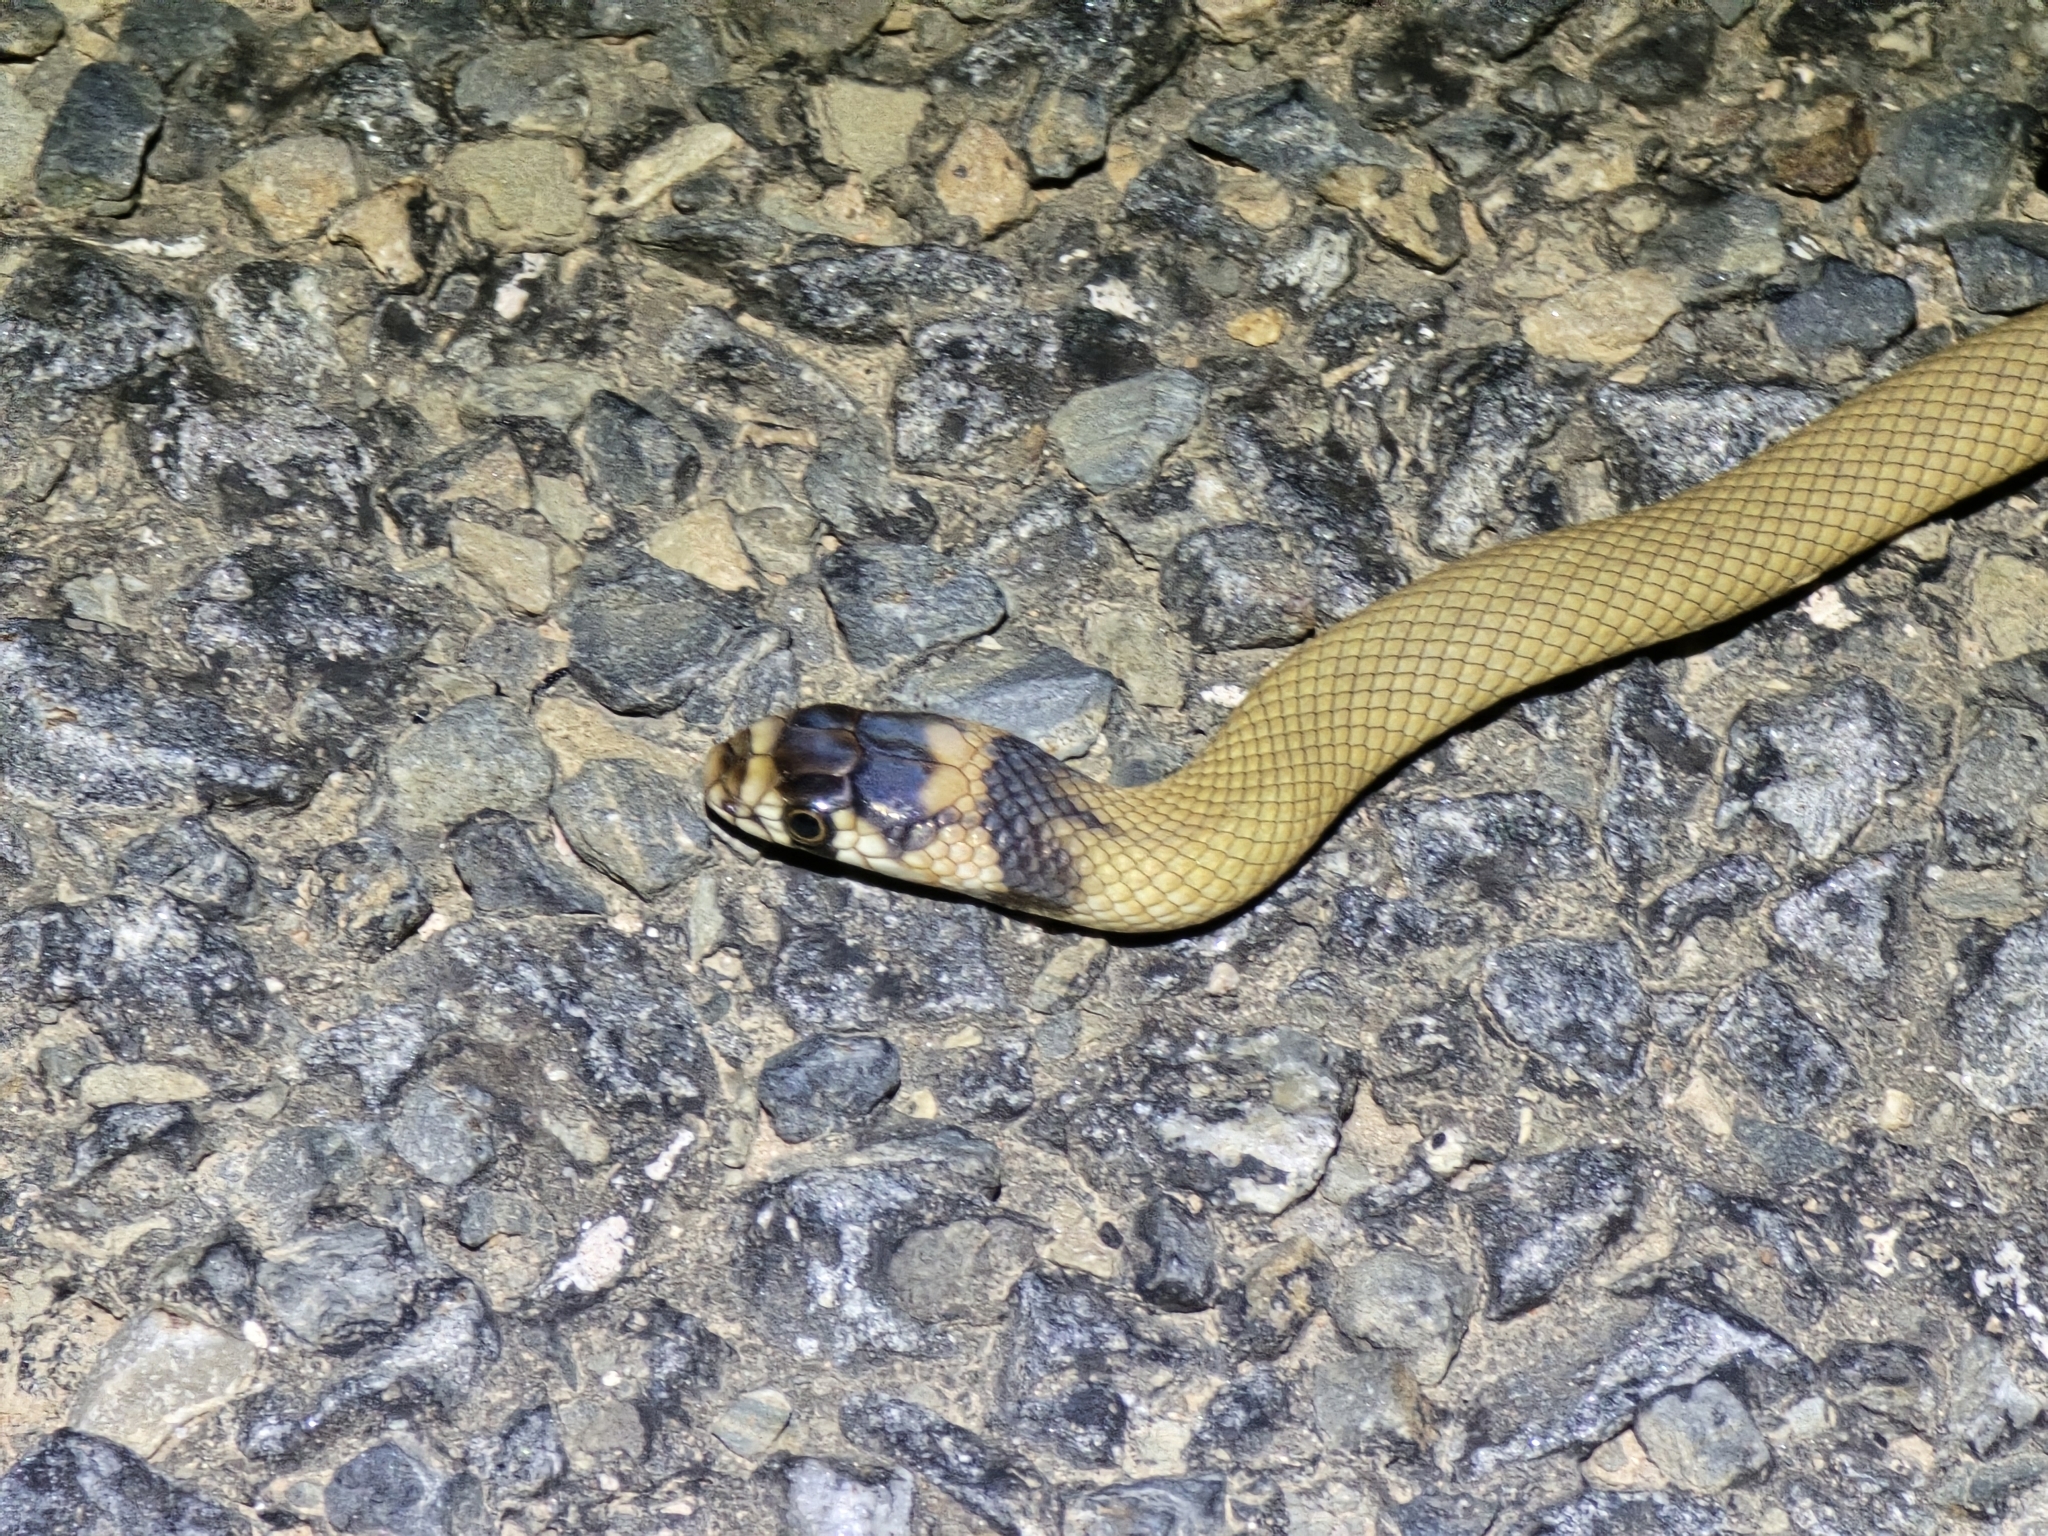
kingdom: Animalia
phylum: Chordata
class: Squamata
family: Elapidae
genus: Pseudonaja
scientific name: Pseudonaja aspidorhyncha
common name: Strap-snouted brown snake
